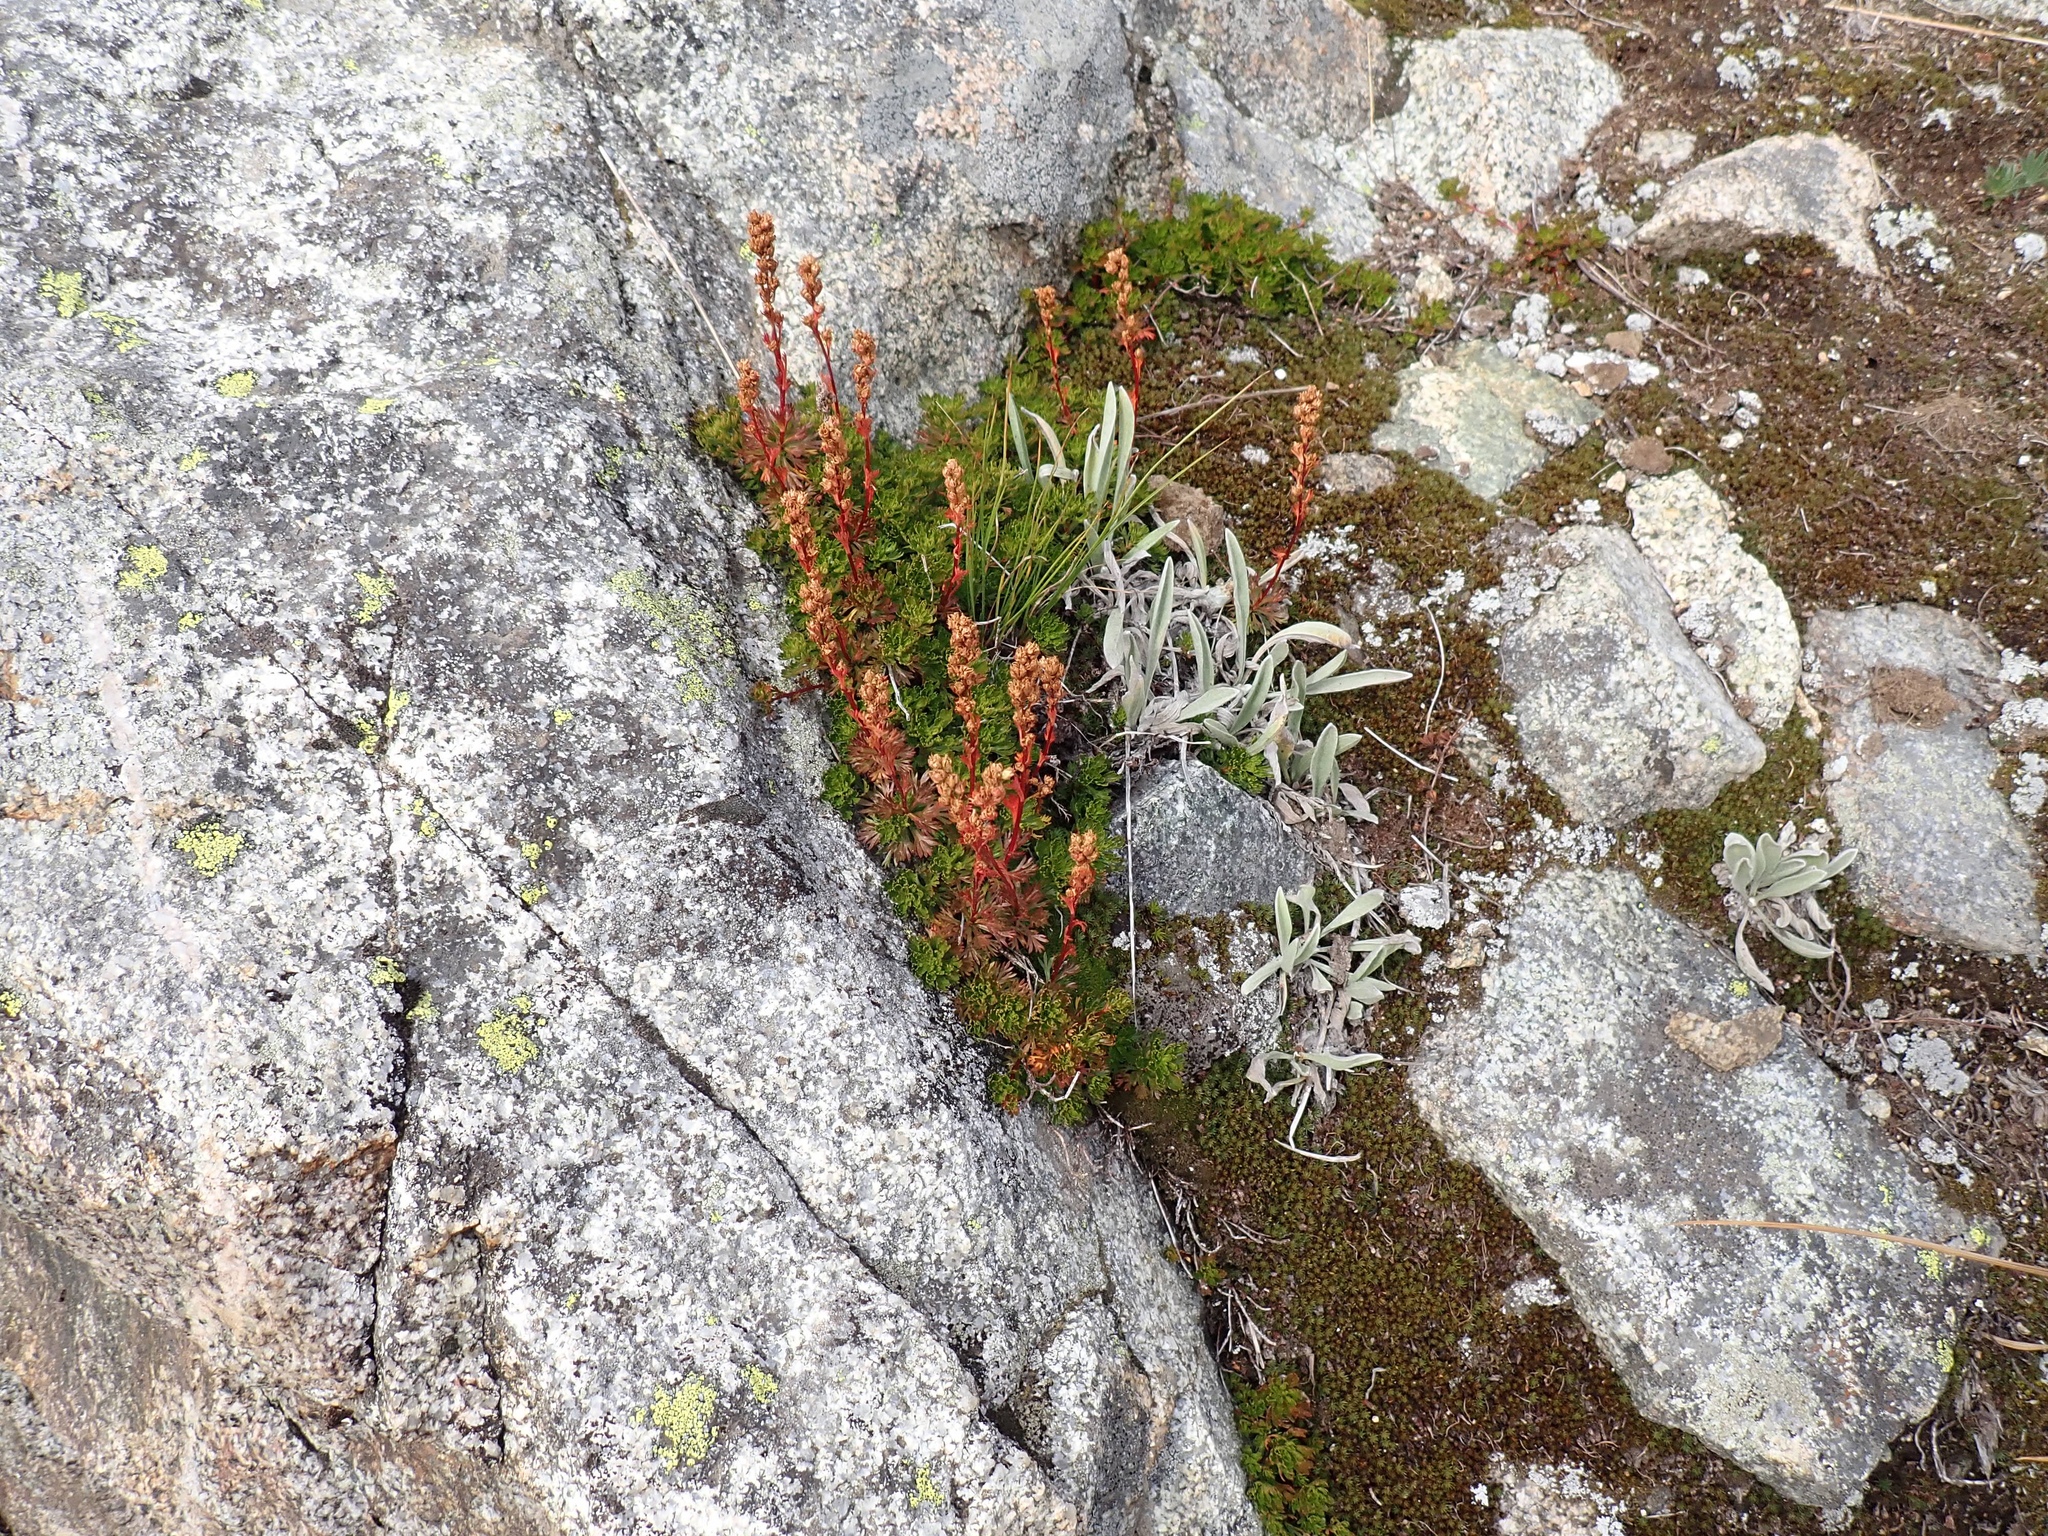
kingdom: Plantae
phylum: Tracheophyta
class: Magnoliopsida
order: Rosales
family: Rosaceae
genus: Luetkea
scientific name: Luetkea pectinata
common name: Partridgefoot
